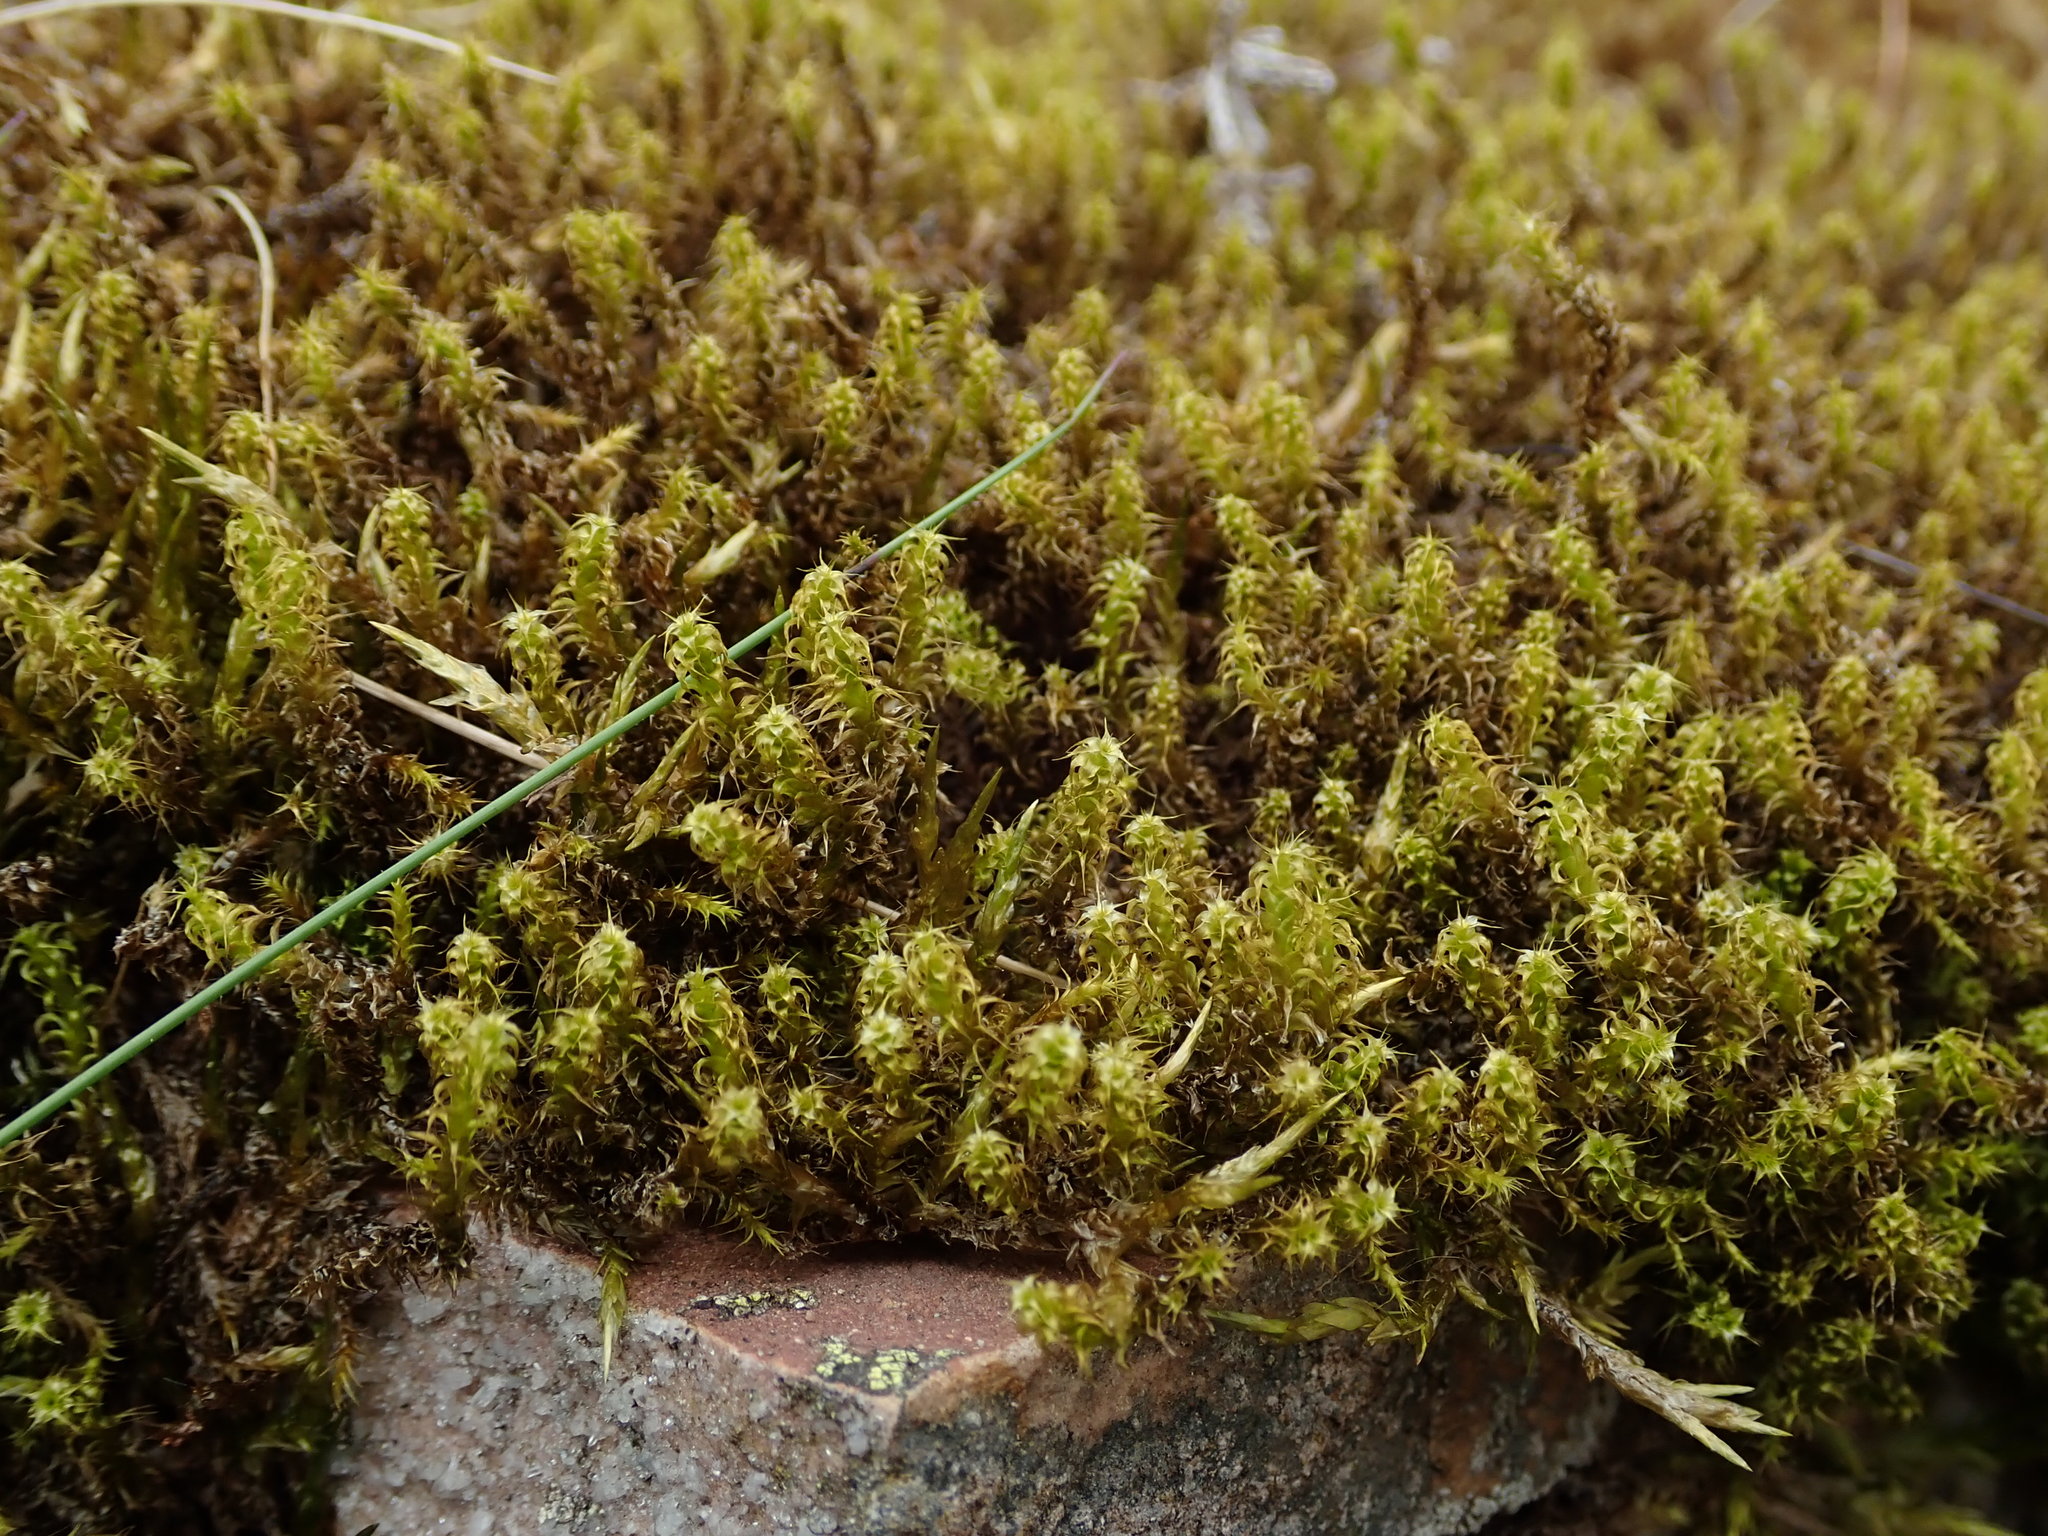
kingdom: Plantae
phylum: Bryophyta
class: Bryopsida
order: Hypnales
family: Hylocomiaceae
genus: Rhytidiadelphus
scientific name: Rhytidiadelphus squarrosus
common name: Springy turf-moss
